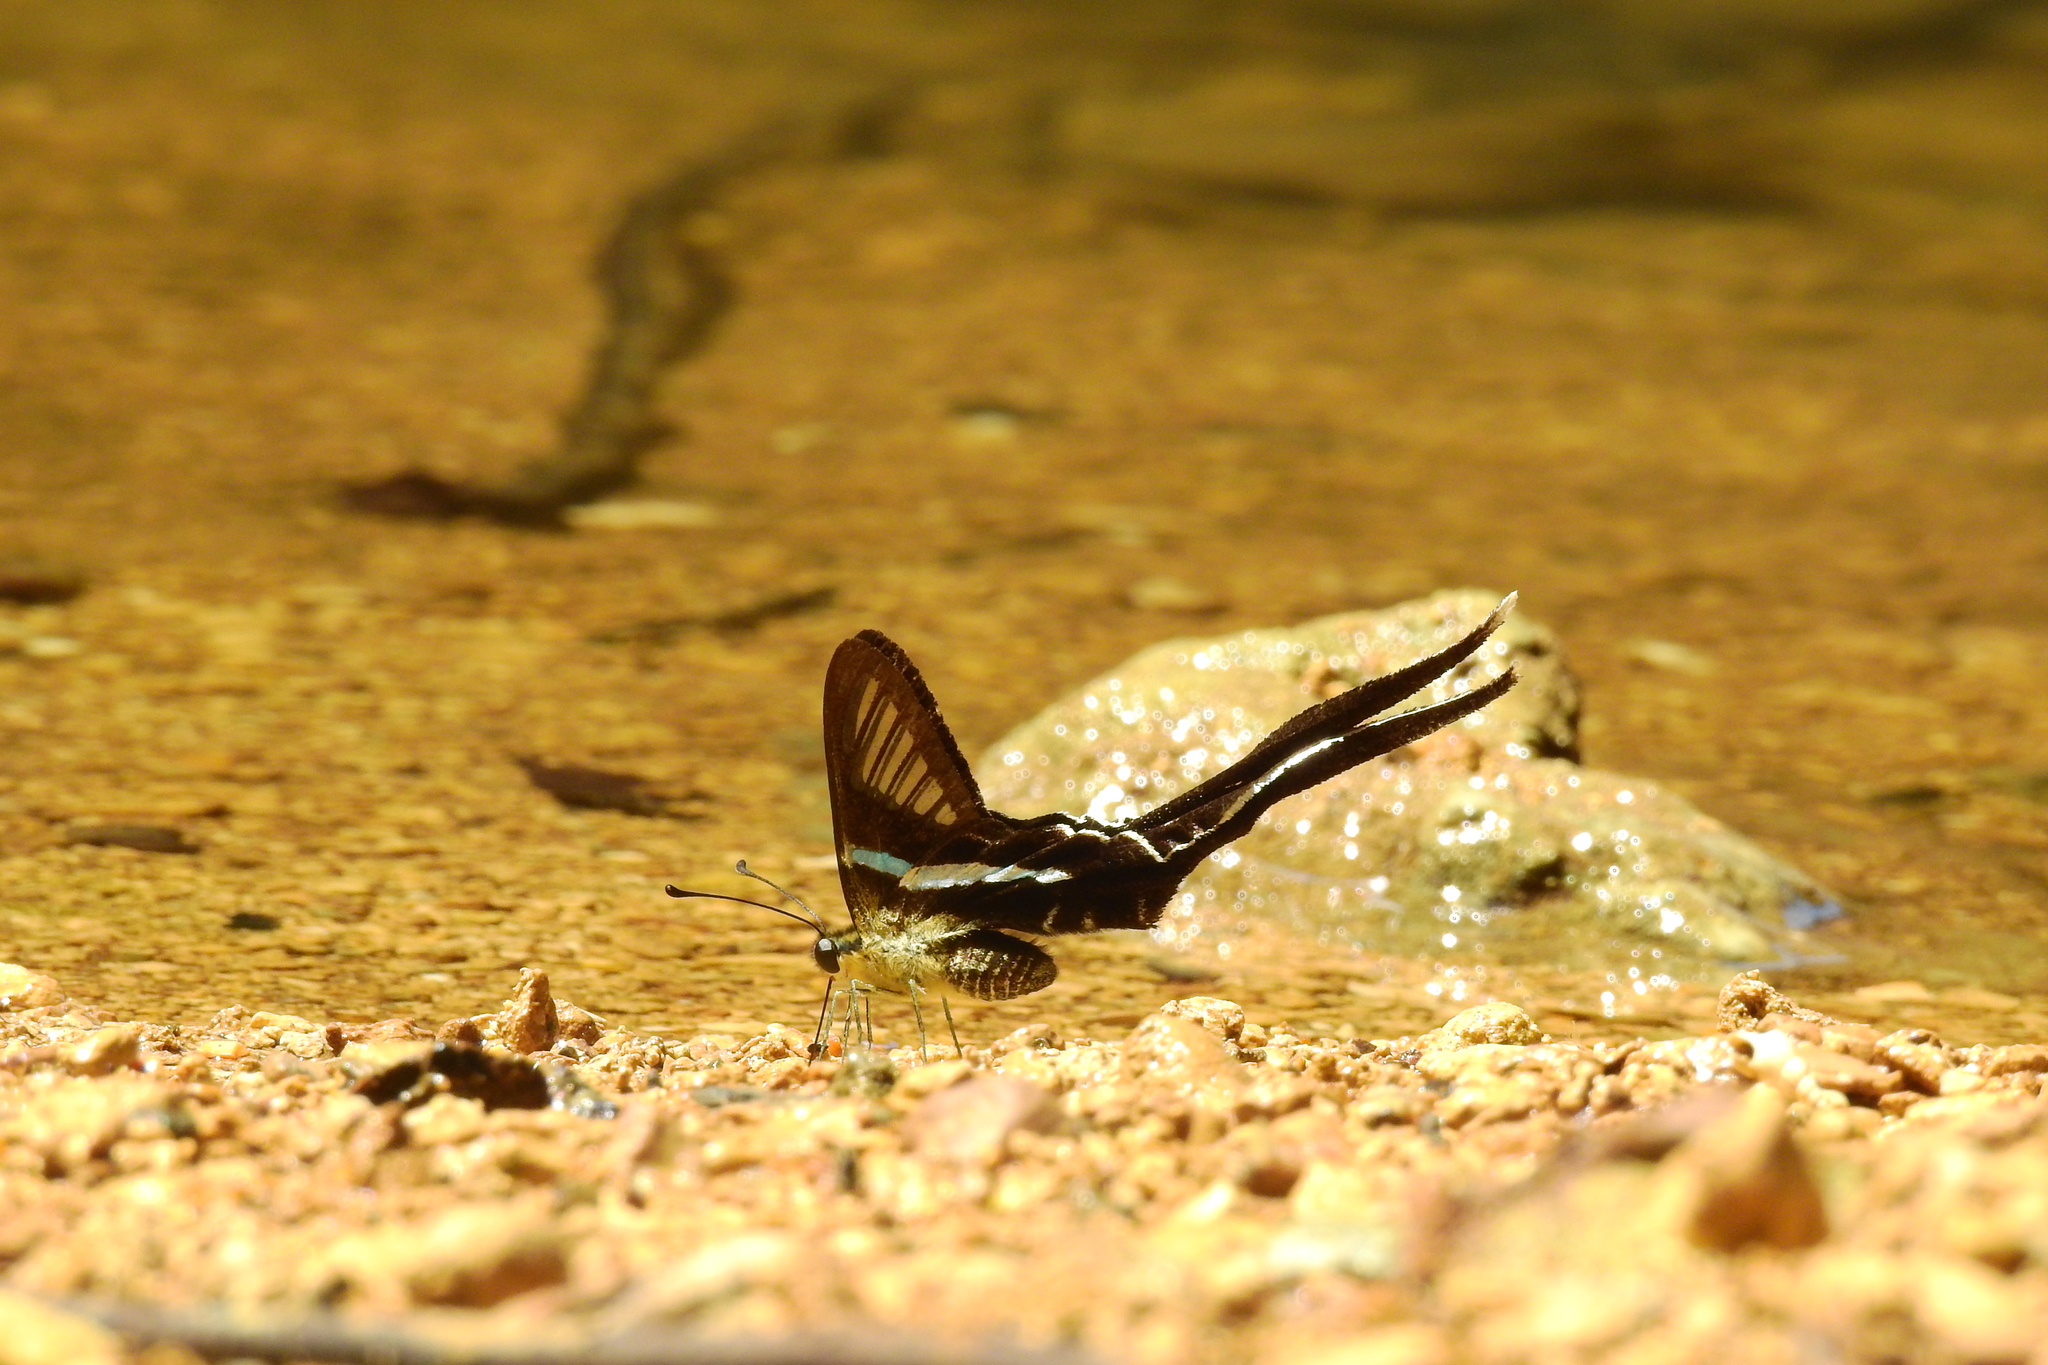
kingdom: Animalia
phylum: Arthropoda
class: Insecta
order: Lepidoptera
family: Papilionidae
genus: Lamproptera
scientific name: Lamproptera meges
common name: Green dragontail
